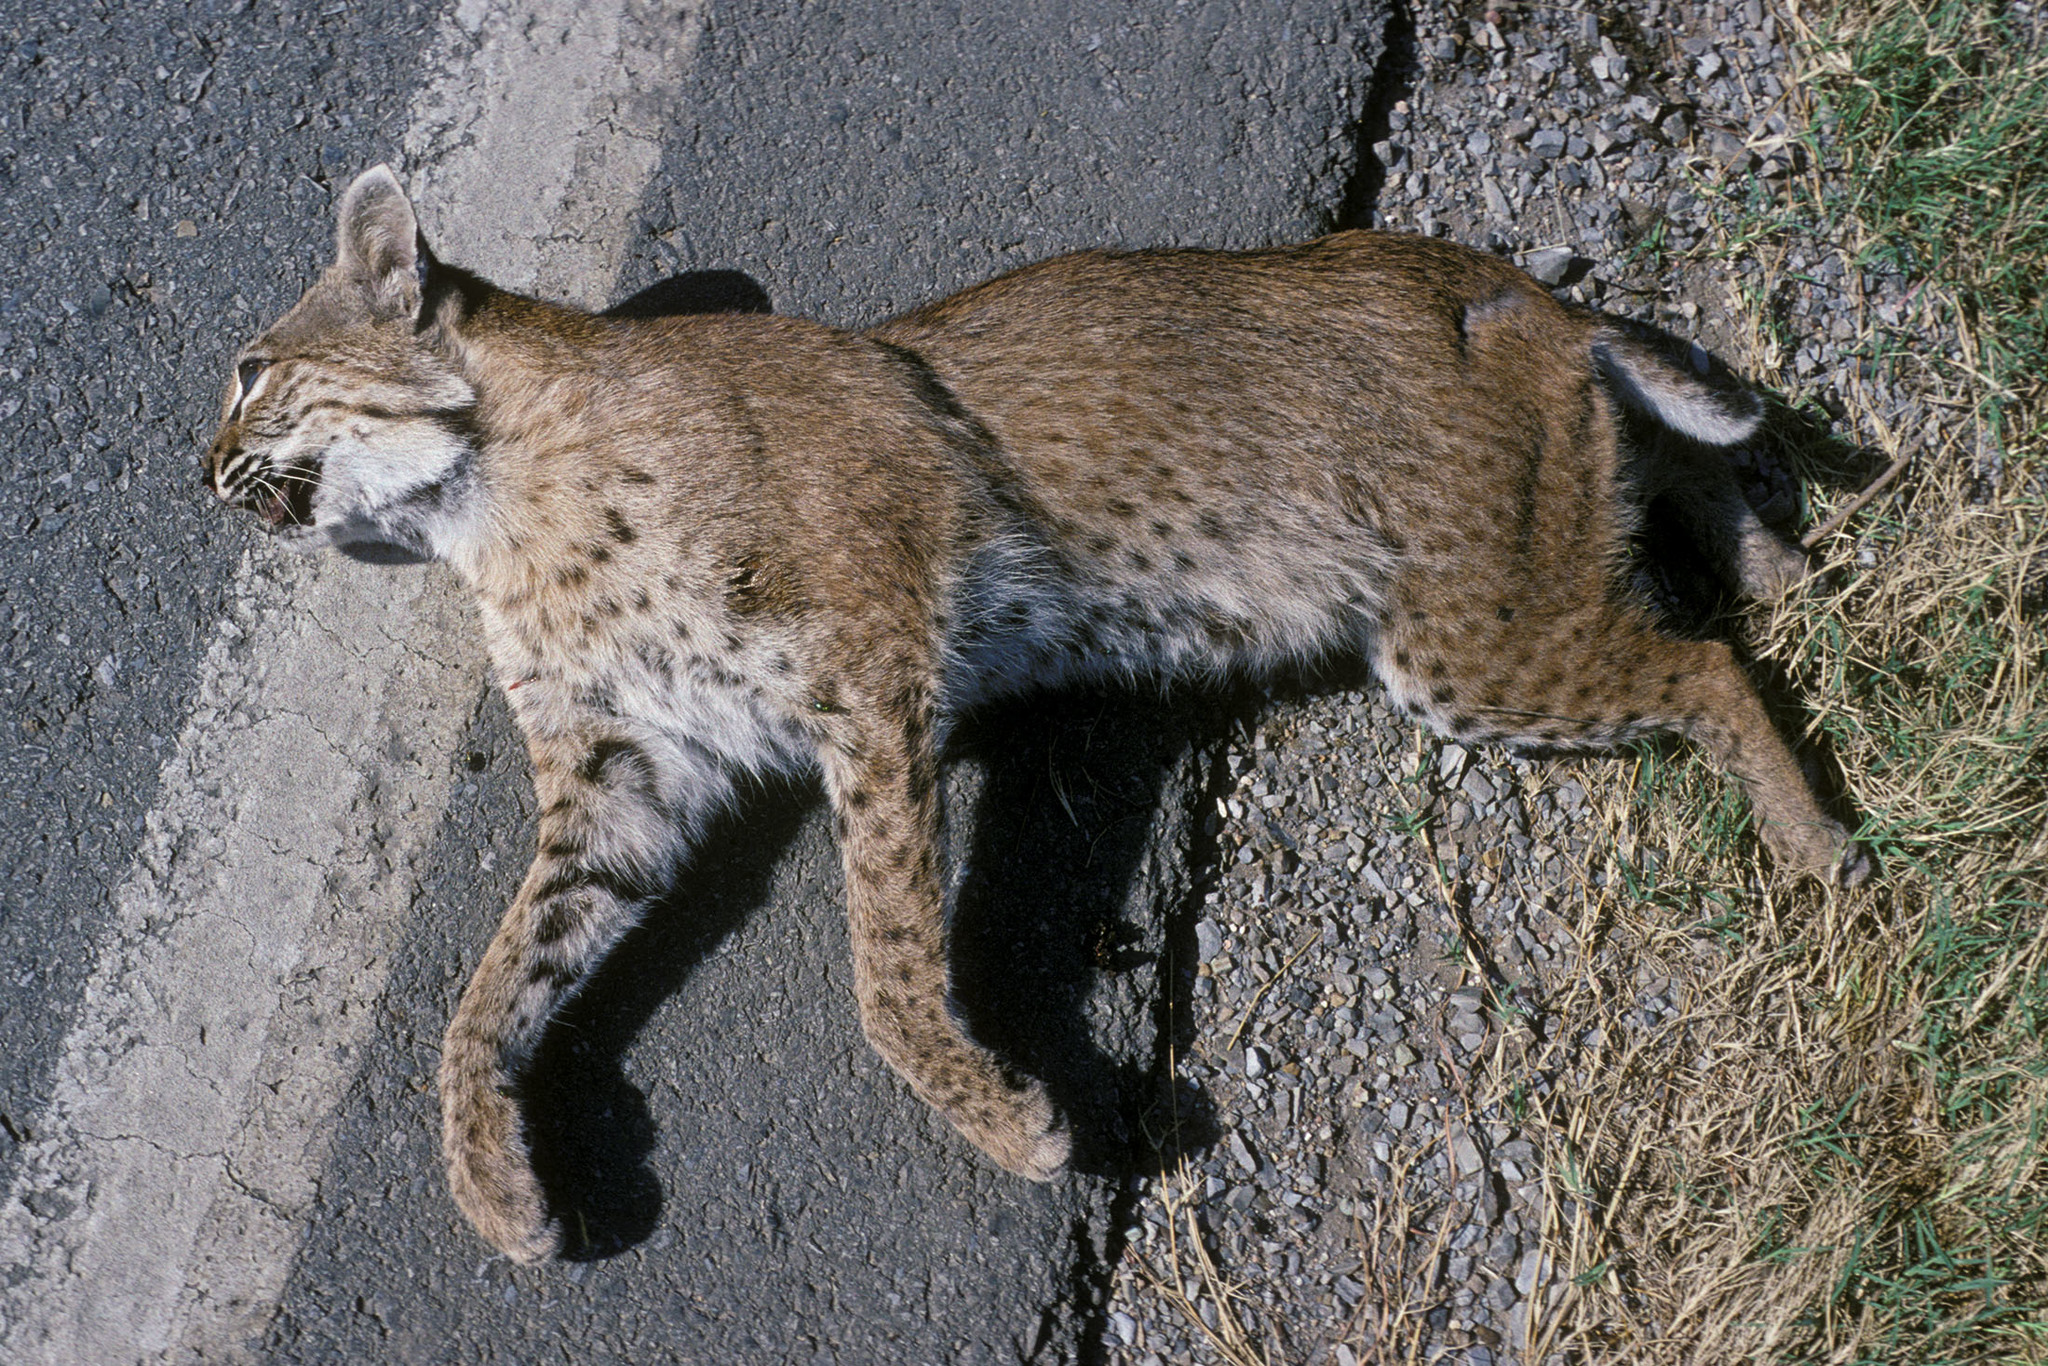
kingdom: Animalia
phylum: Chordata
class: Mammalia
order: Carnivora
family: Felidae
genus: Lynx
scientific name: Lynx rufus
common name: Bobcat
